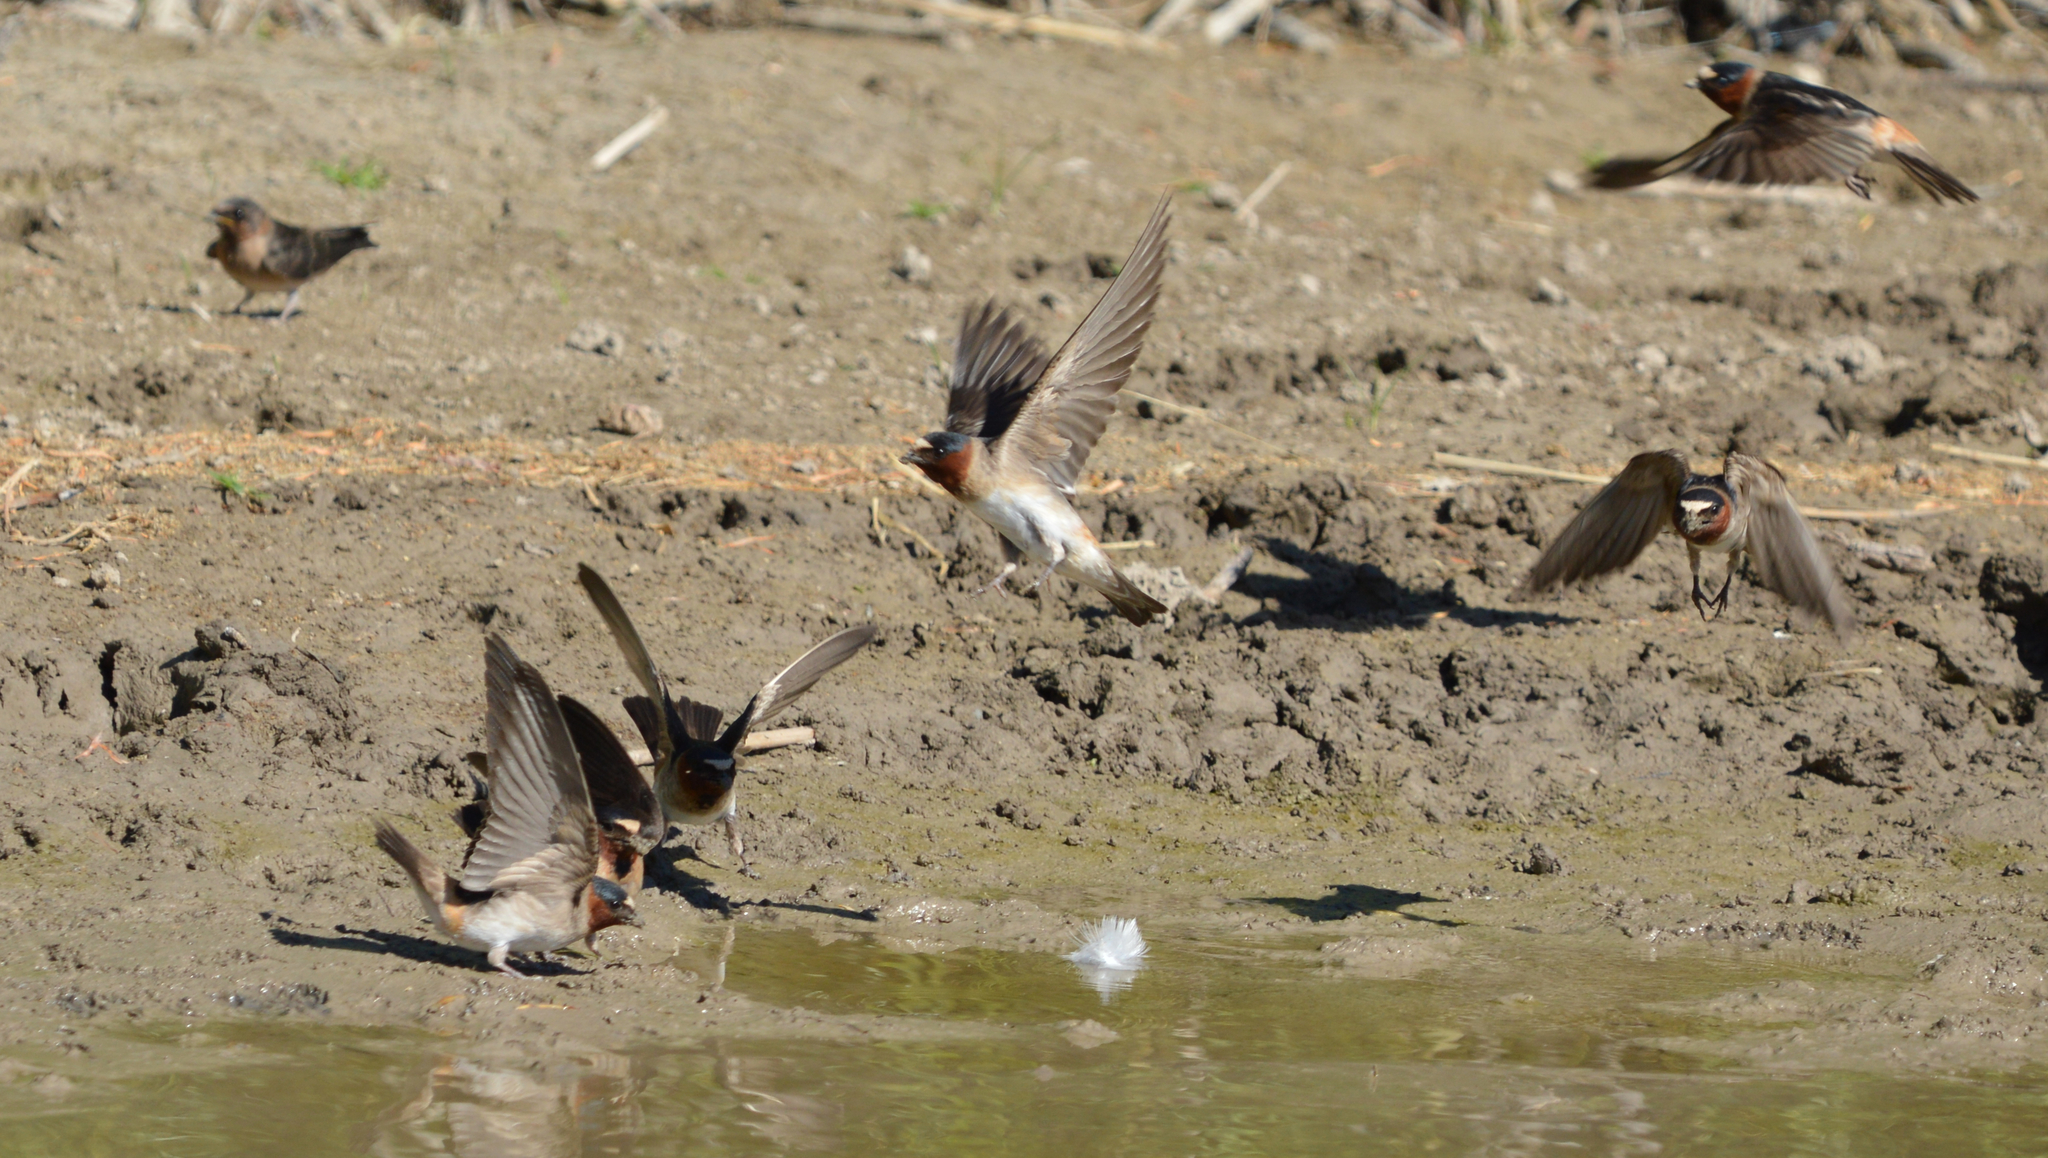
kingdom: Animalia
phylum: Chordata
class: Aves
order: Passeriformes
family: Hirundinidae
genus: Petrochelidon
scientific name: Petrochelidon pyrrhonota
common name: American cliff swallow
